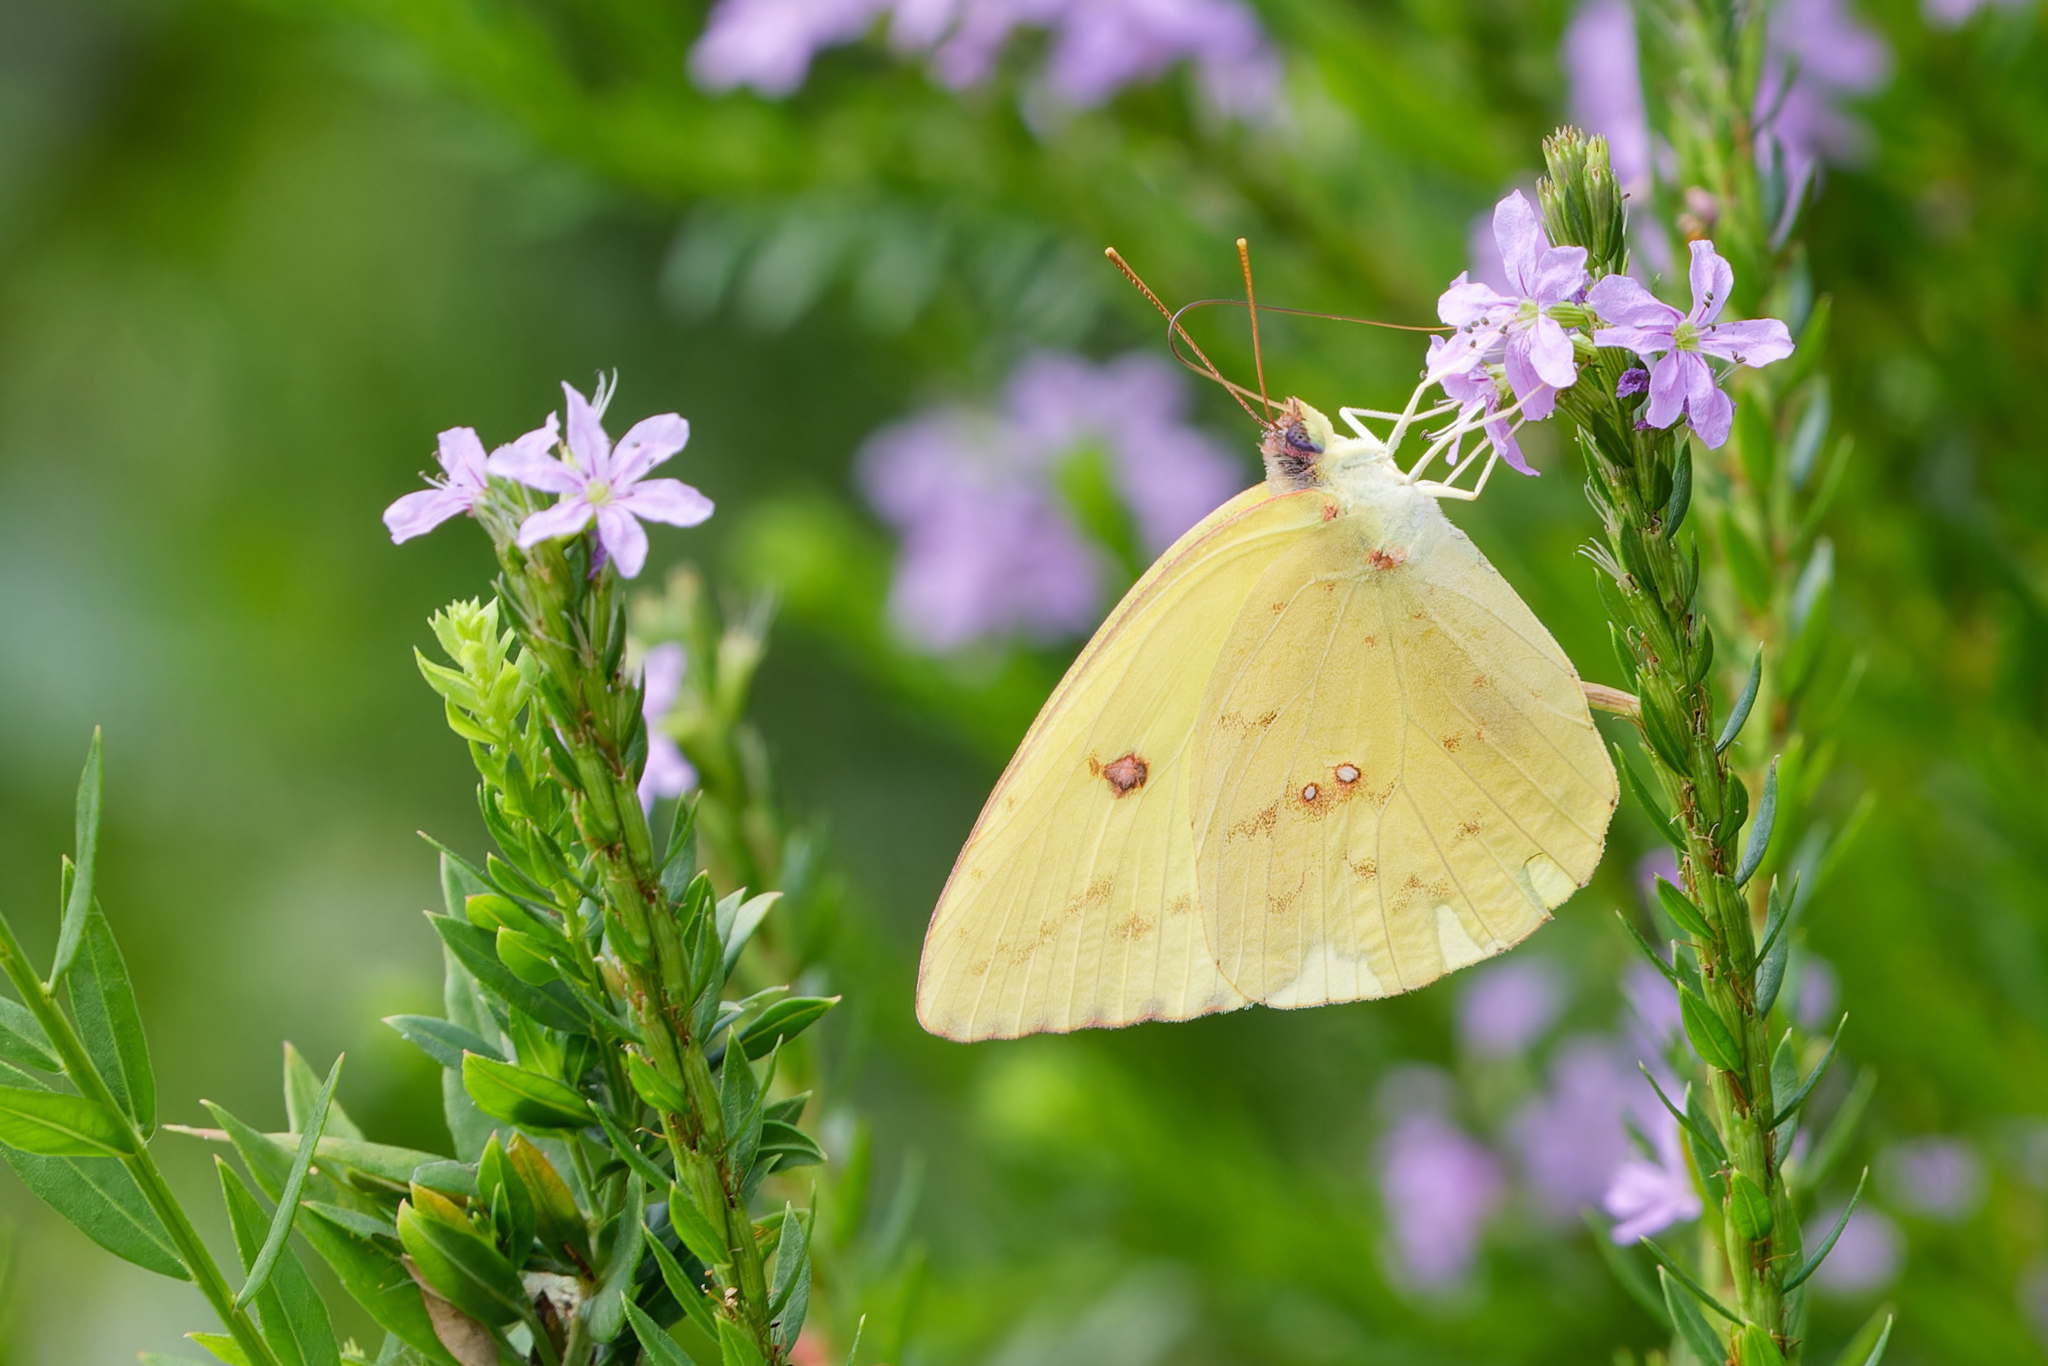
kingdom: Animalia
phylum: Arthropoda
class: Insecta
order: Lepidoptera
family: Pieridae
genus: Phoebis
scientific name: Phoebis sennae
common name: Cloudless sulphur
